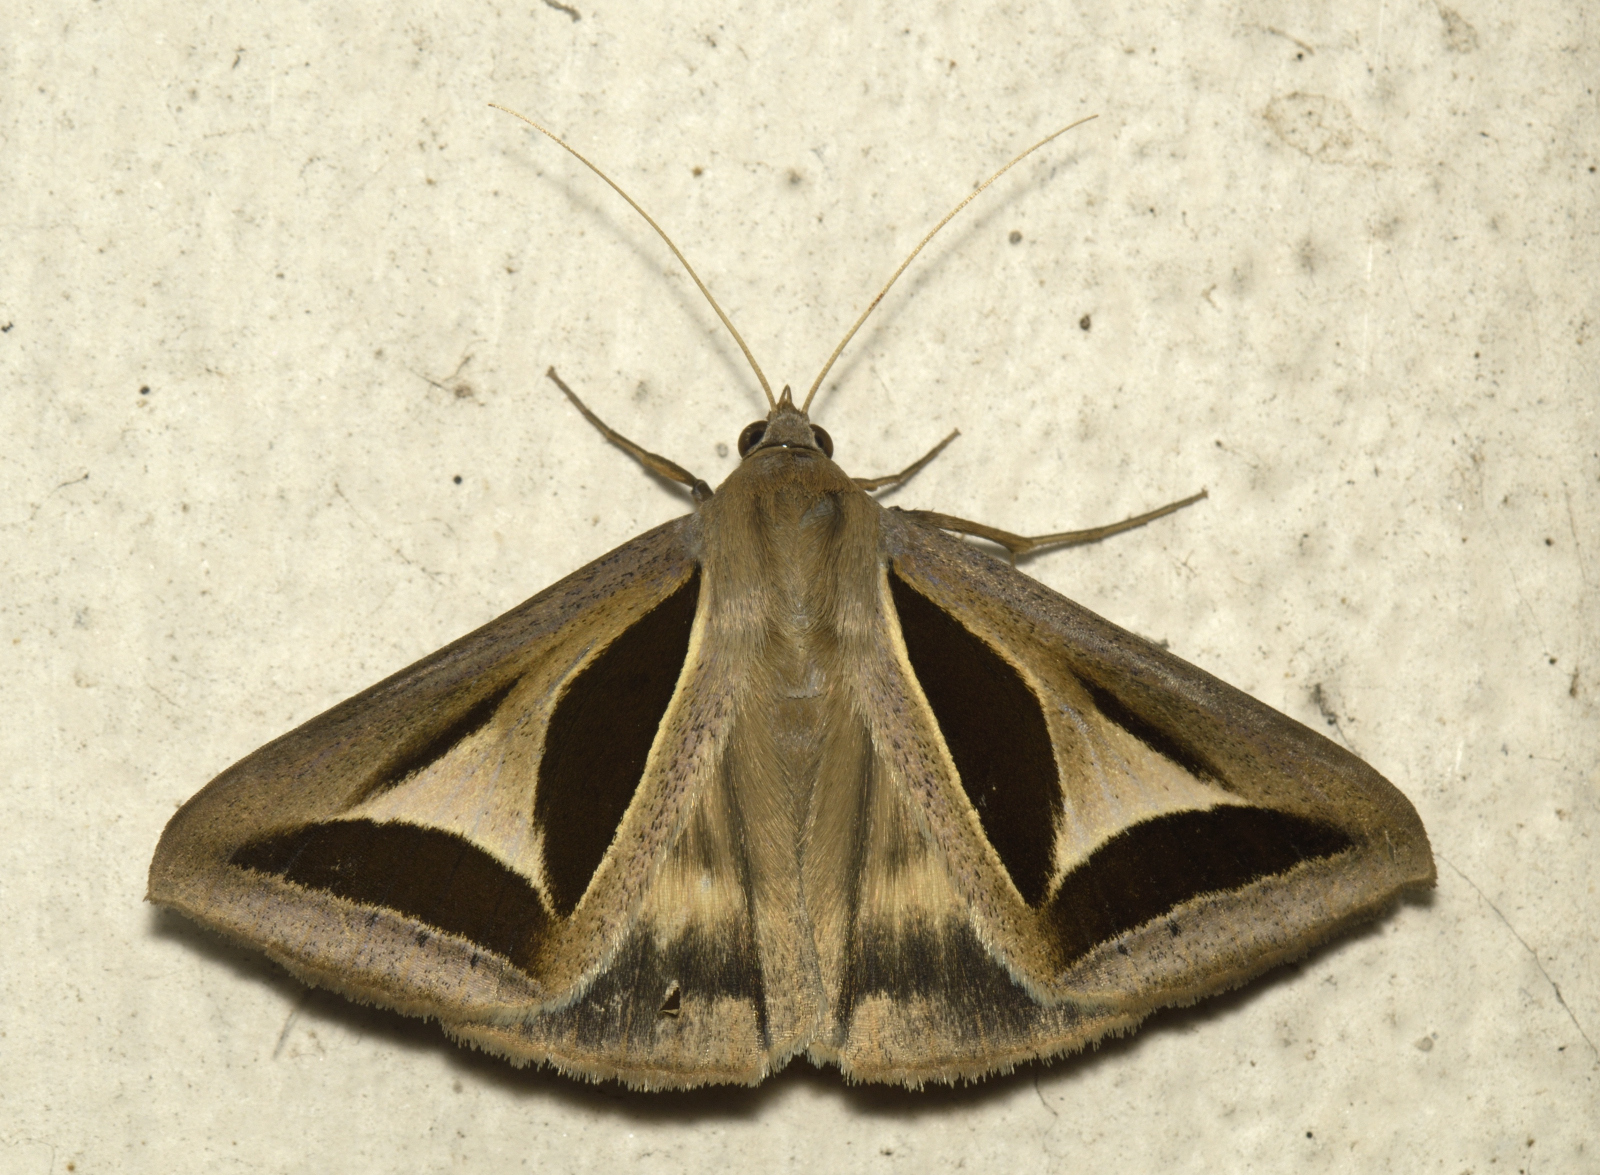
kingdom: Animalia
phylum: Arthropoda
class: Insecta
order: Lepidoptera
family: Erebidae
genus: Trigonodes
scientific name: Trigonodes cephise
